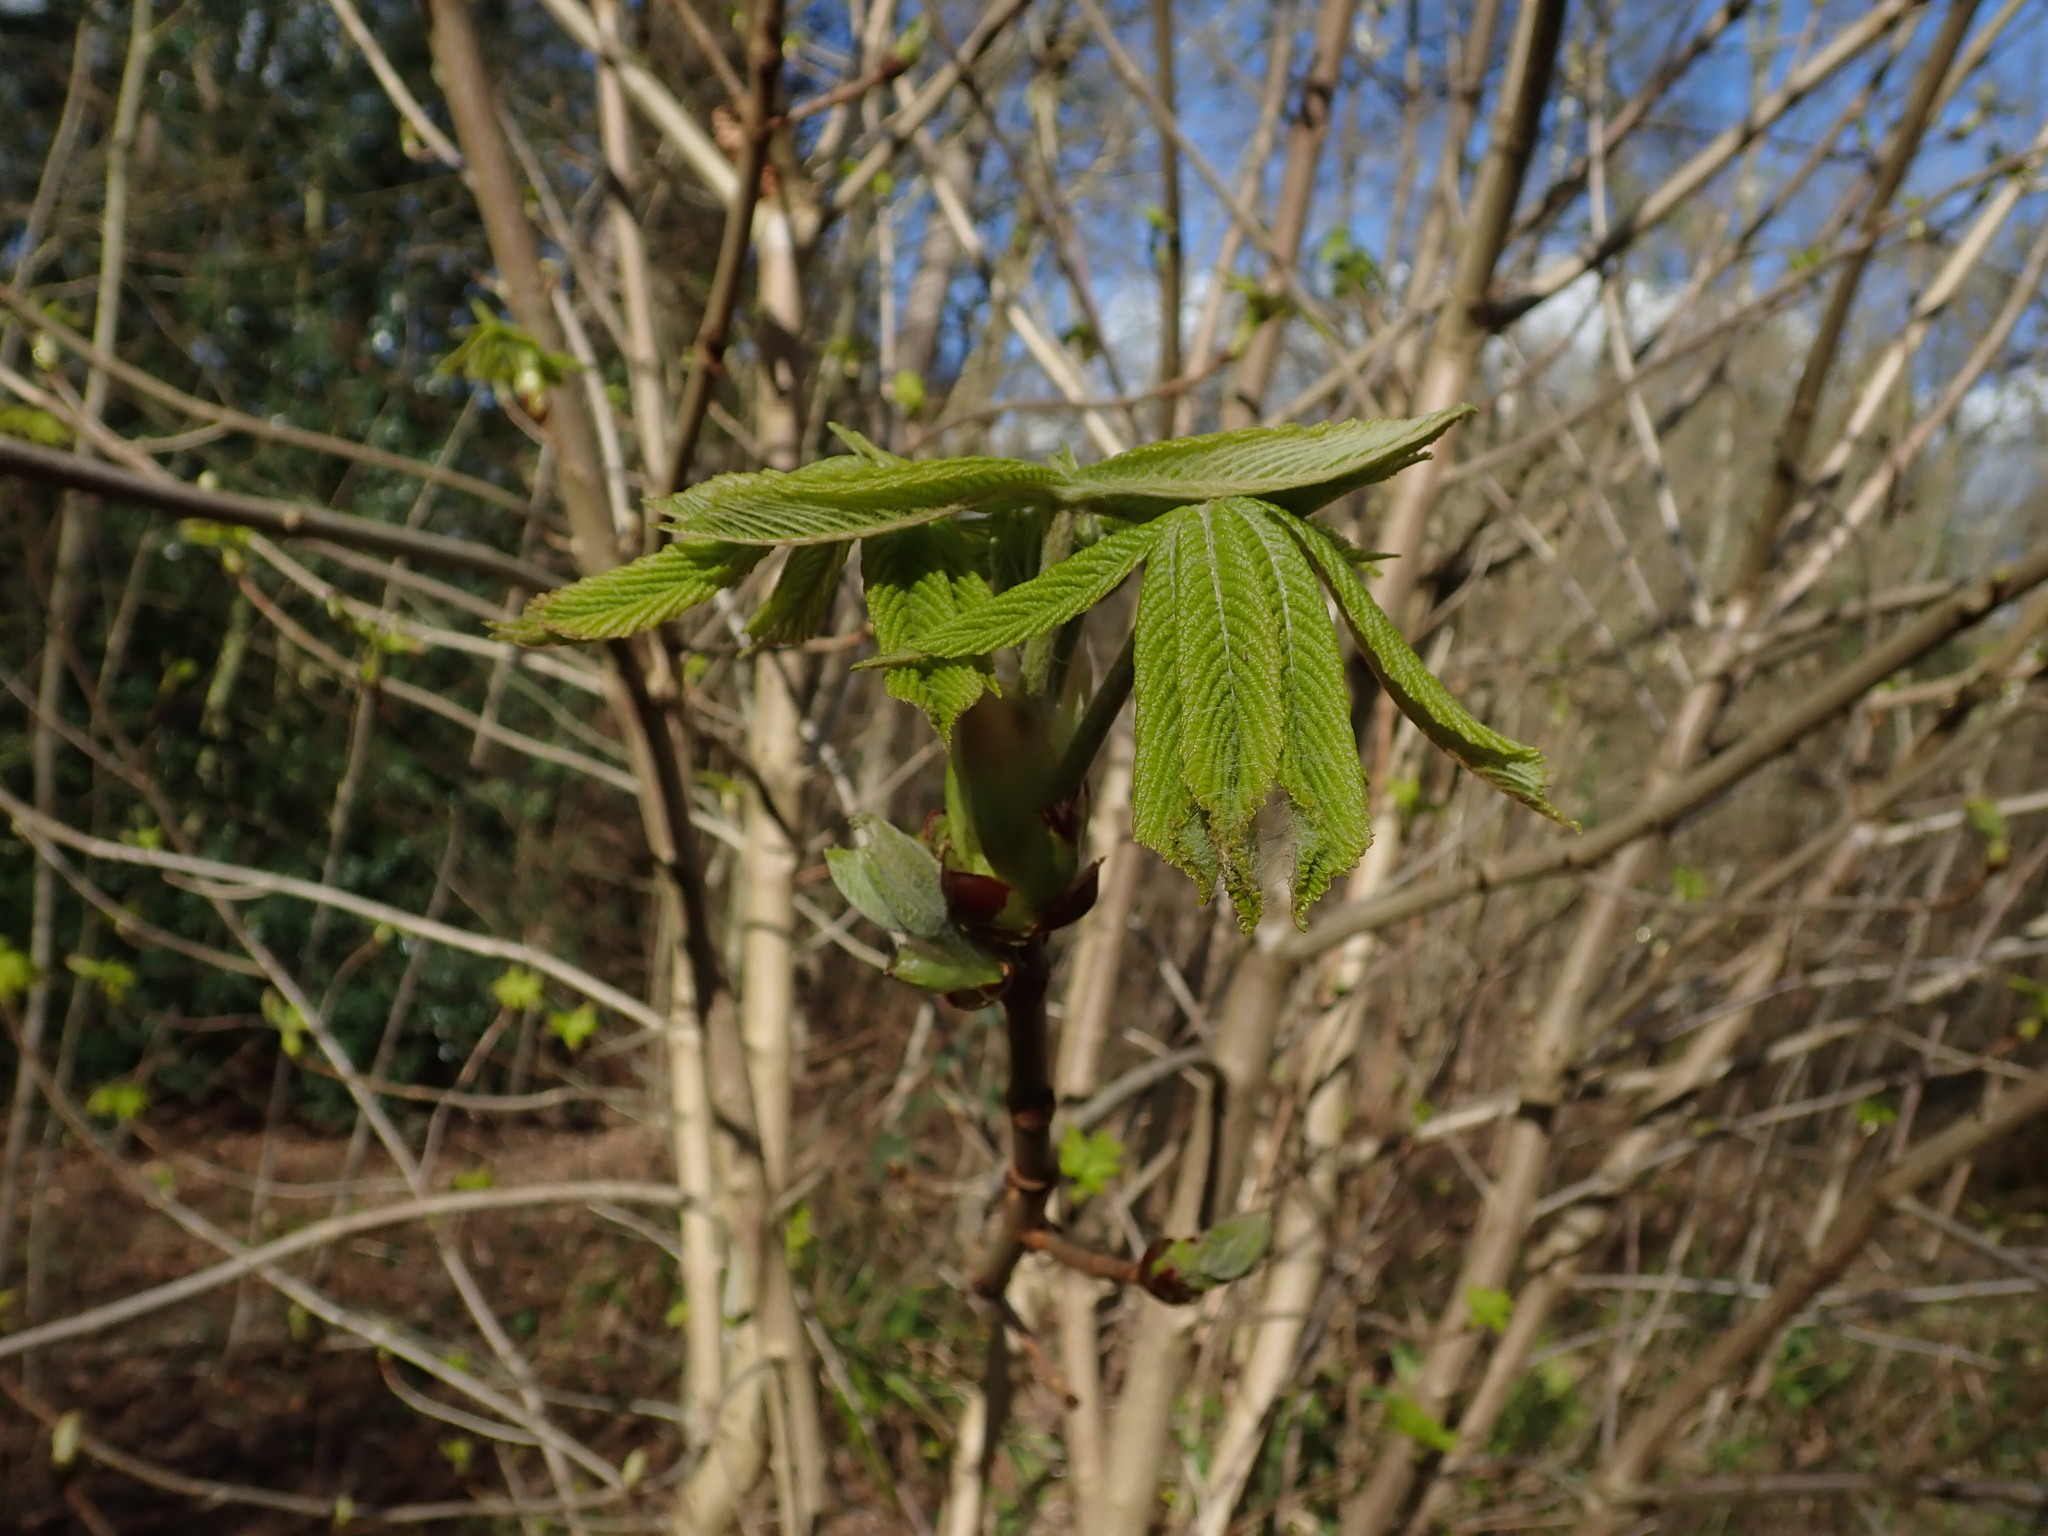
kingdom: Plantae
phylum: Tracheophyta
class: Magnoliopsida
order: Sapindales
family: Sapindaceae
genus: Aesculus
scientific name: Aesculus hippocastanum
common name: Horse-chestnut
